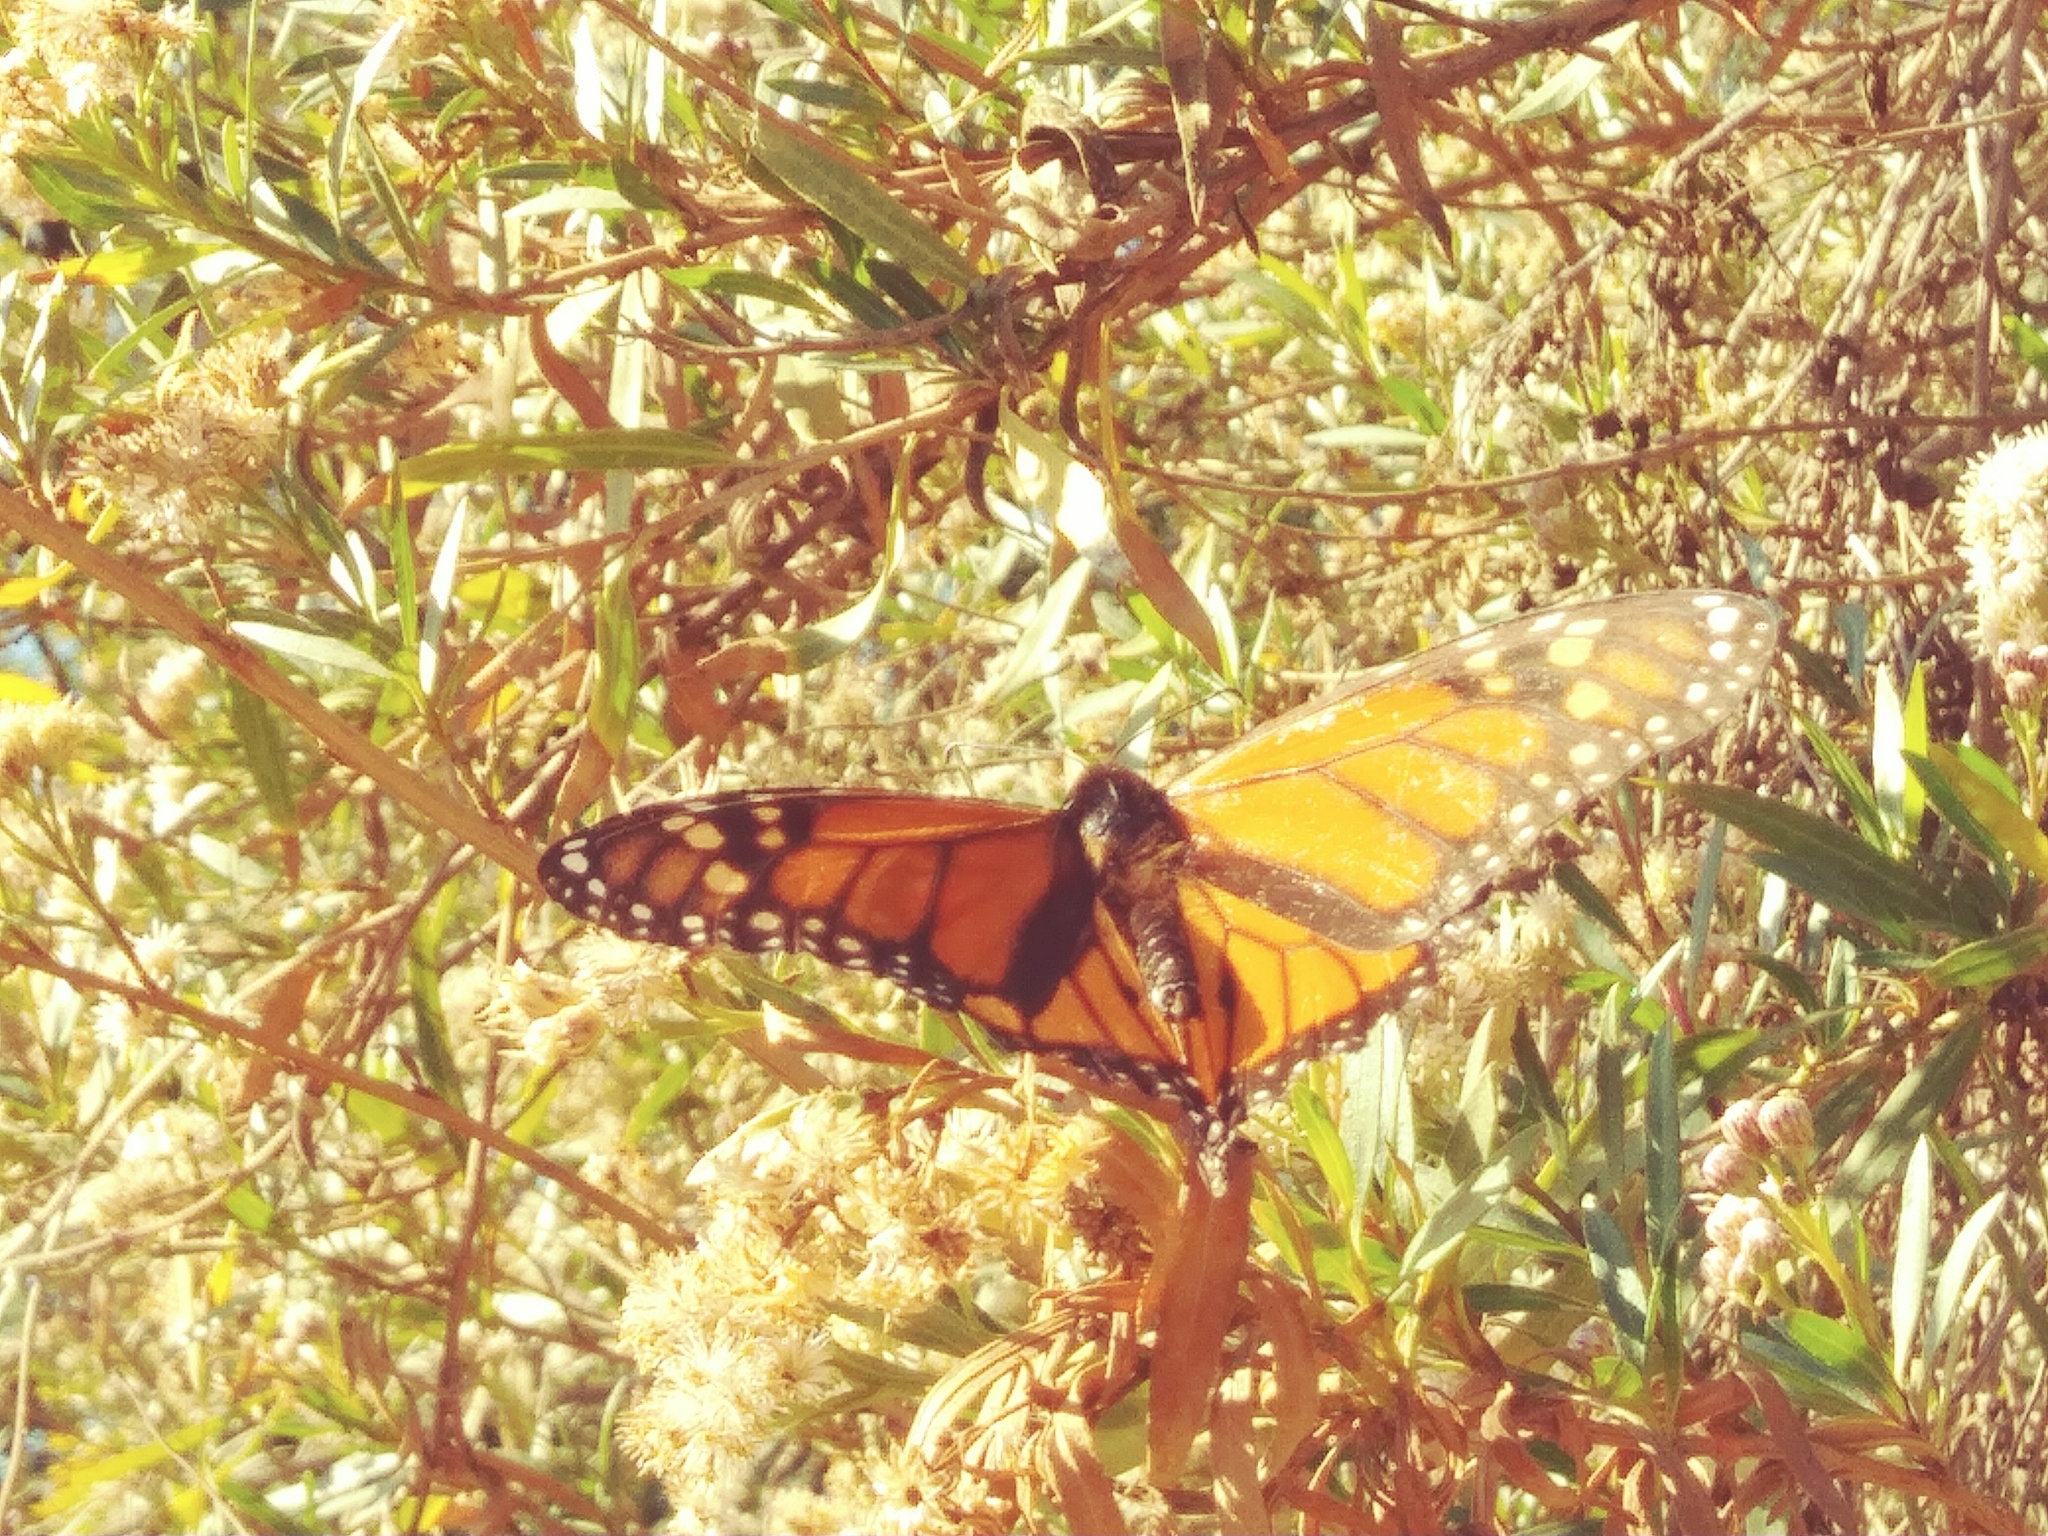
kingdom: Animalia
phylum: Arthropoda
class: Insecta
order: Lepidoptera
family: Nymphalidae
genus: Danaus
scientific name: Danaus plexippus
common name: Monarch
